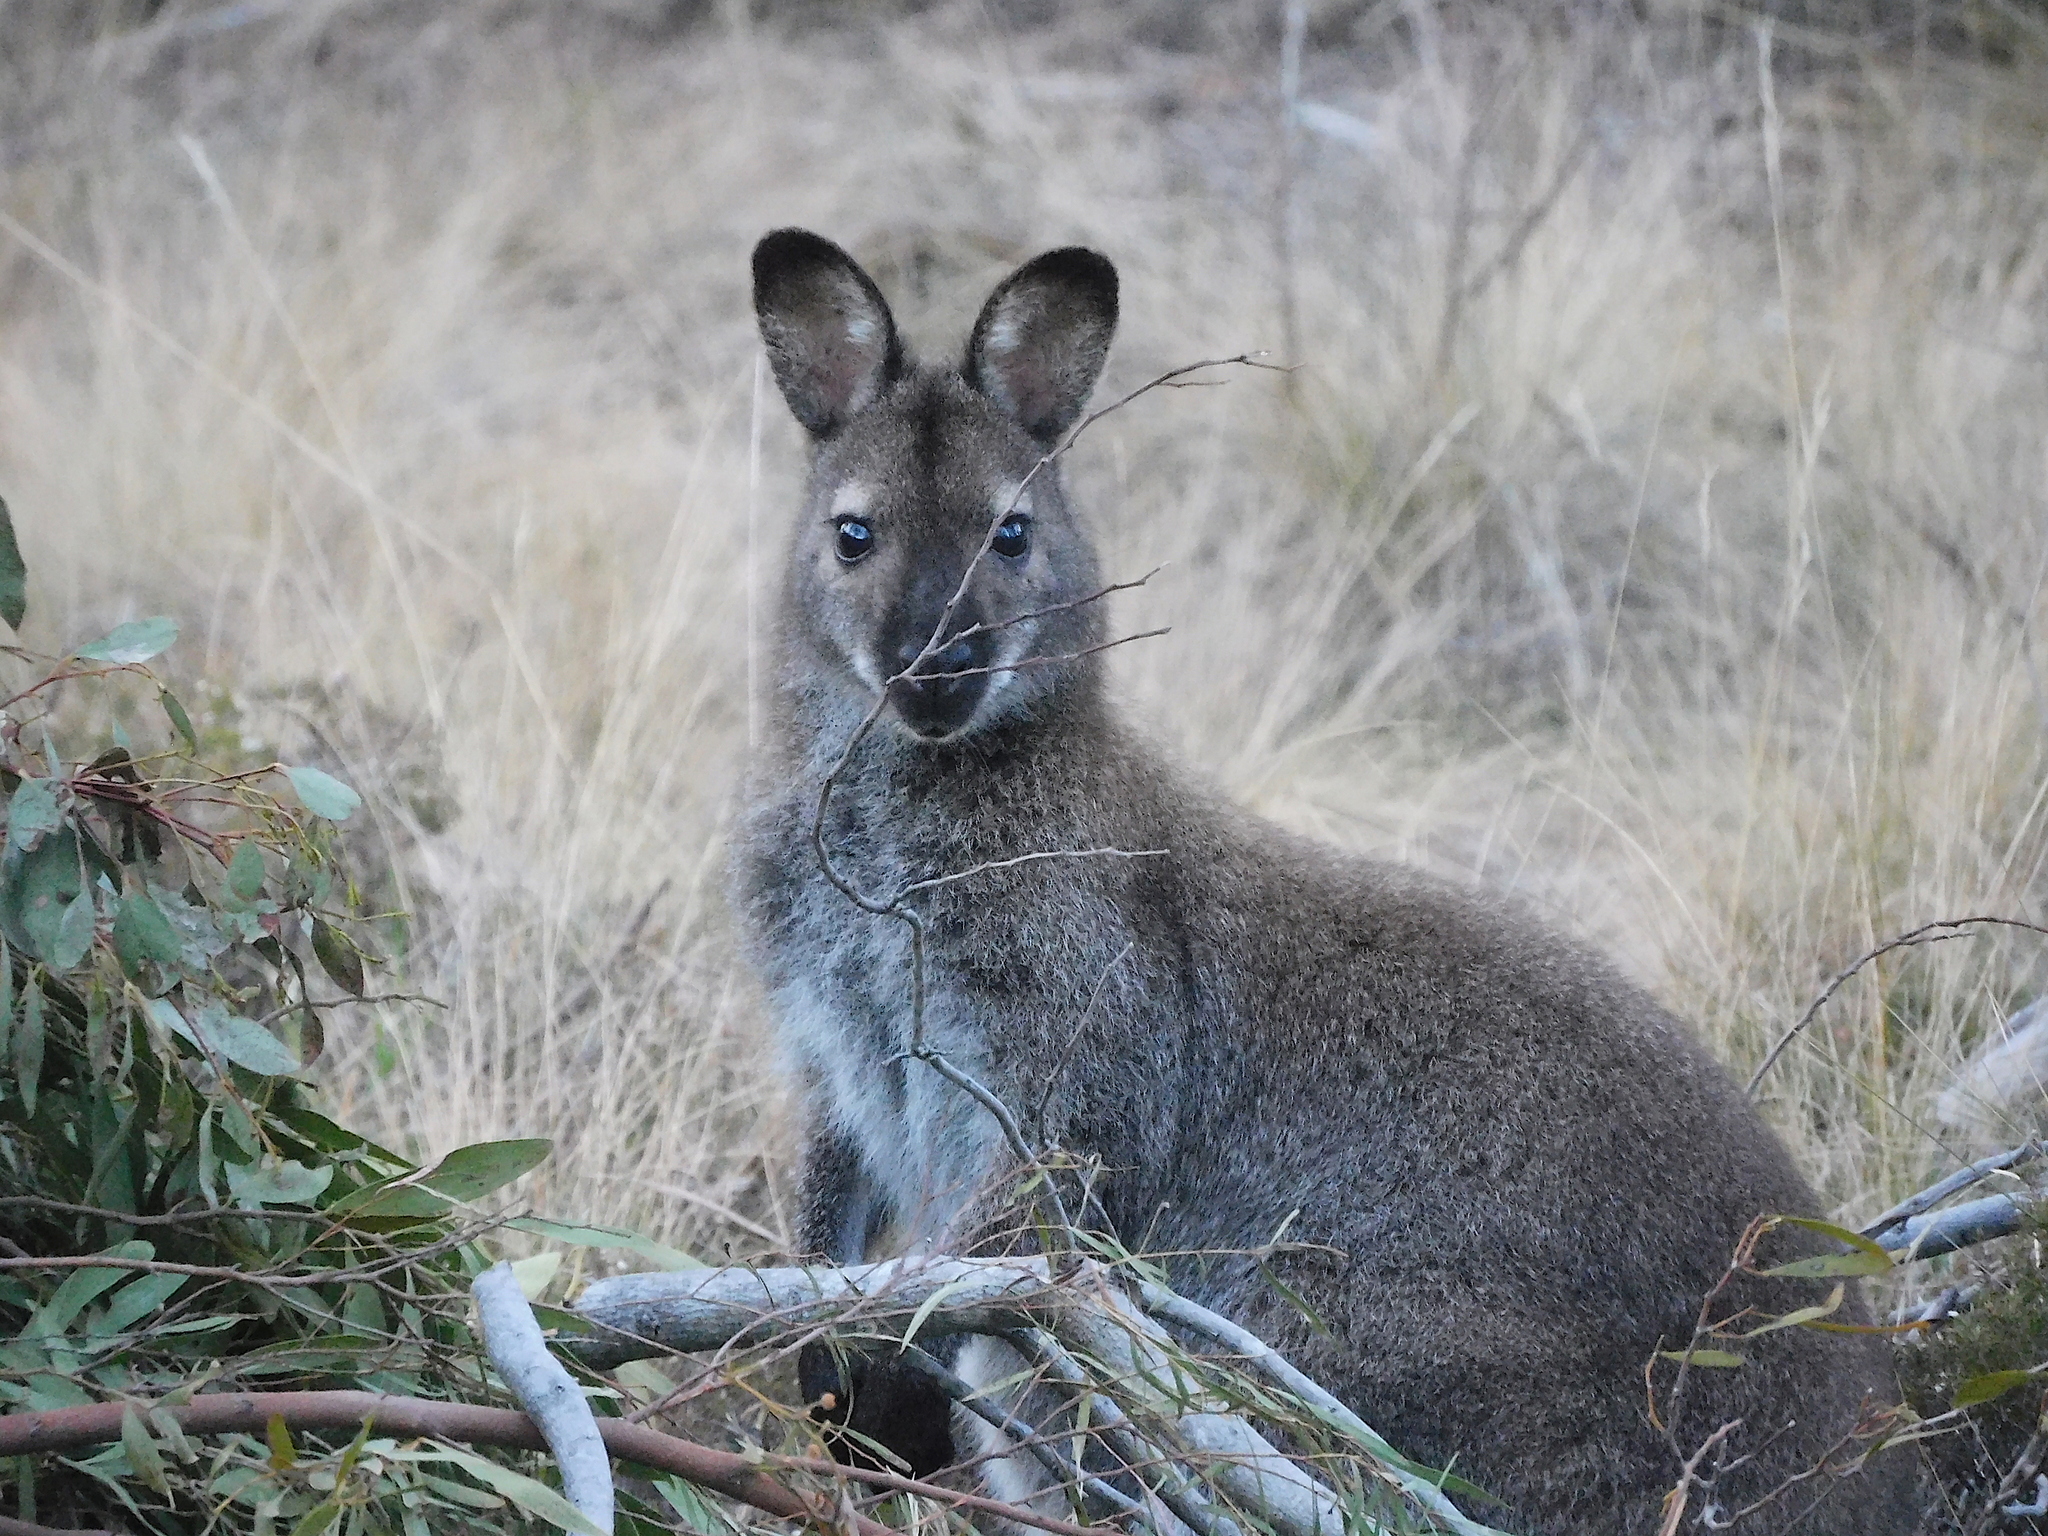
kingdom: Animalia
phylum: Chordata
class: Mammalia
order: Diprotodontia
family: Macropodidae
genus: Notamacropus
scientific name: Notamacropus rufogriseus
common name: Red-necked wallaby
